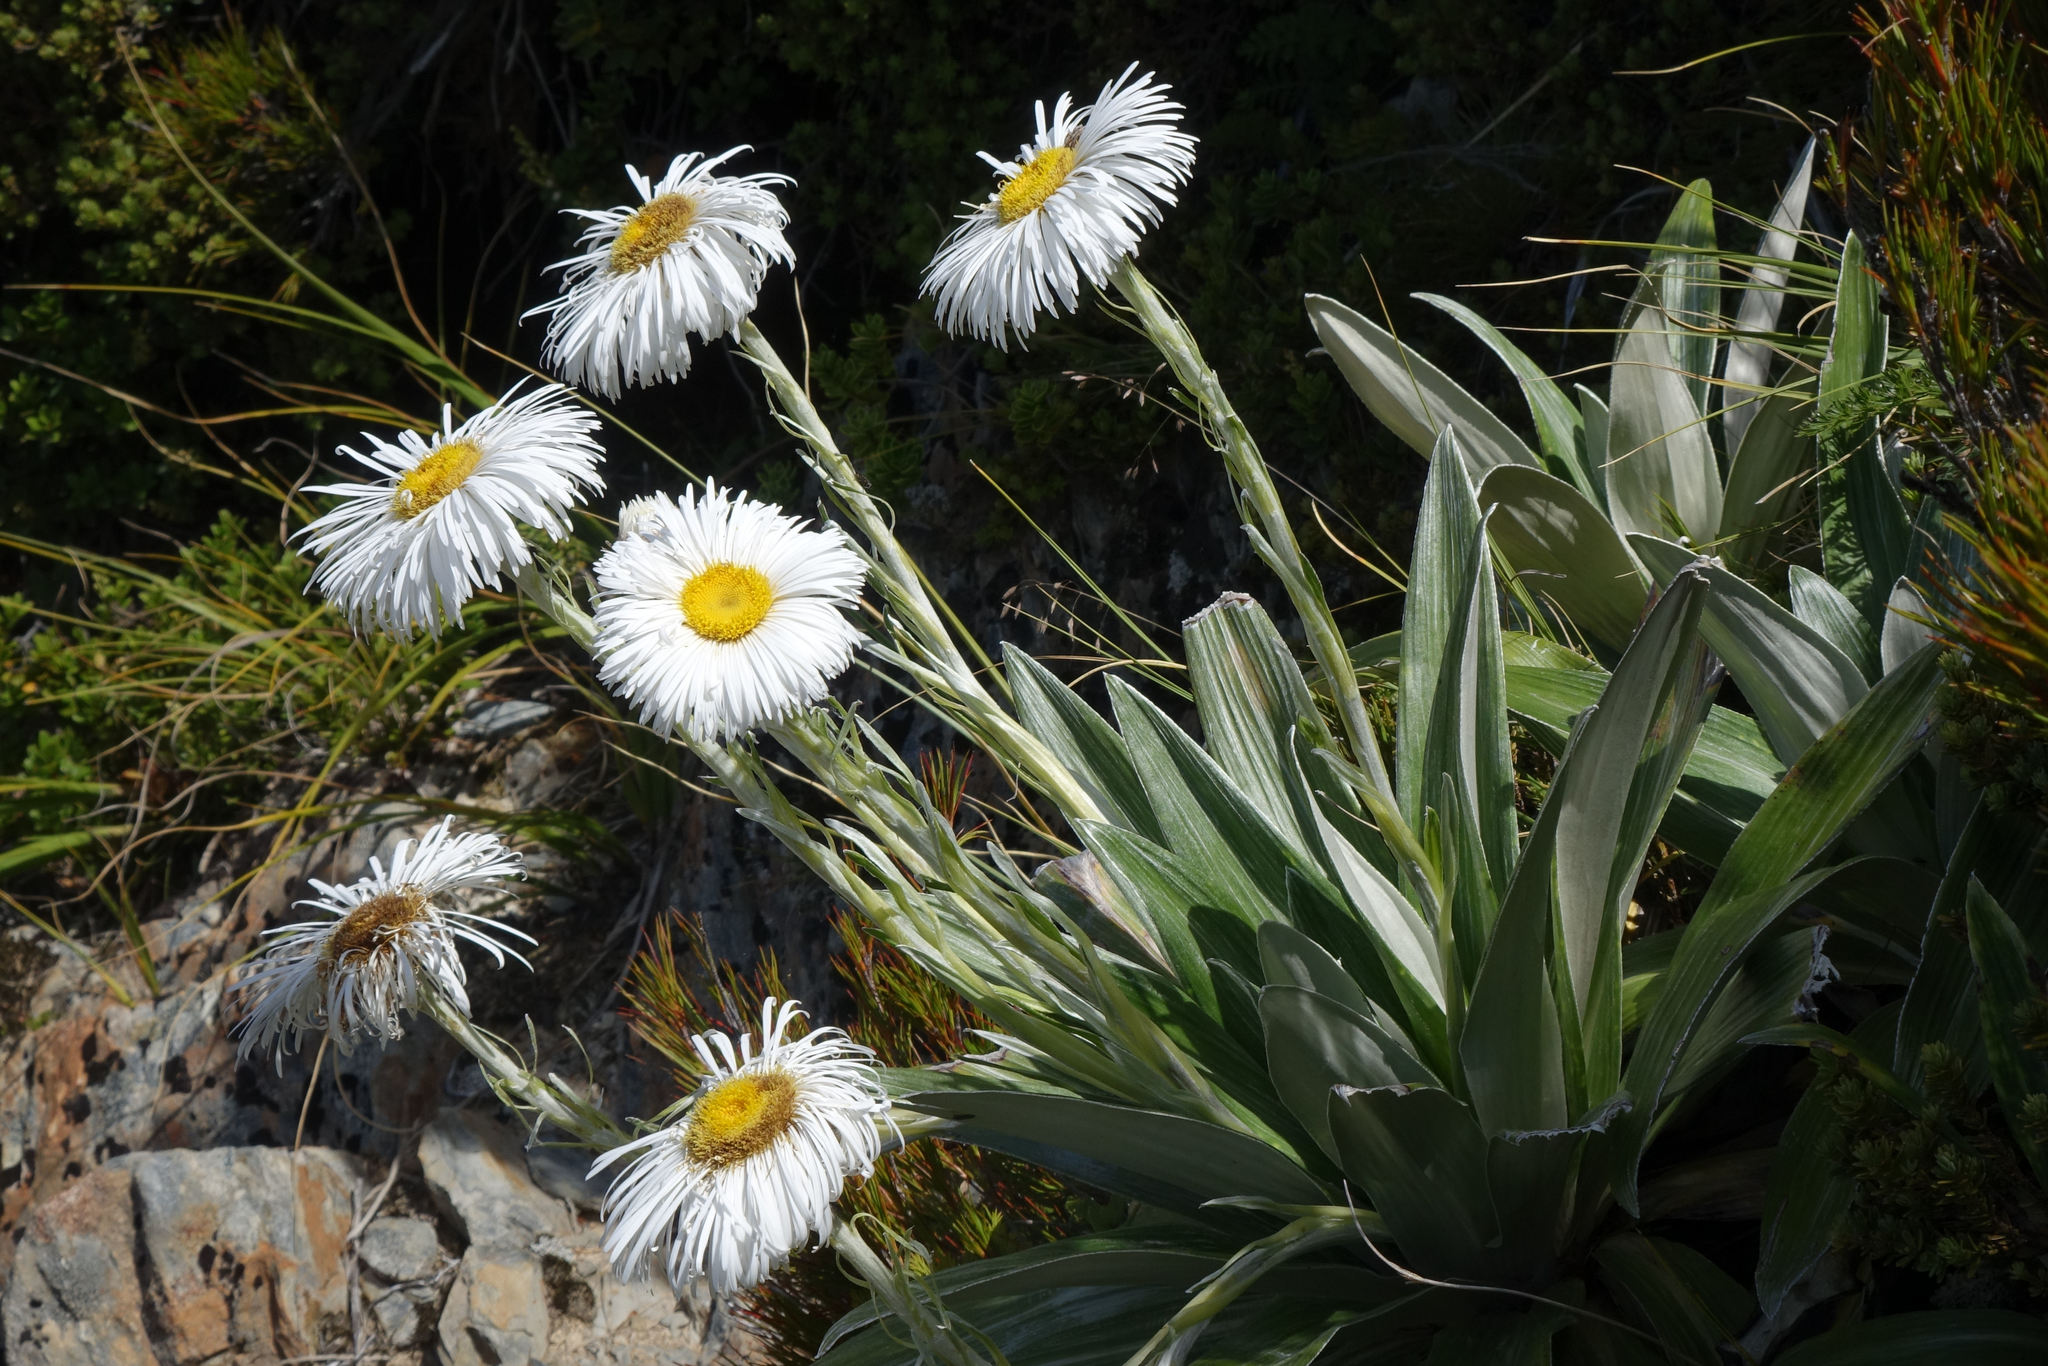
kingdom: Plantae
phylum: Tracheophyta
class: Magnoliopsida
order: Asterales
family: Asteraceae
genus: Celmisia
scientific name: Celmisia semicordata
